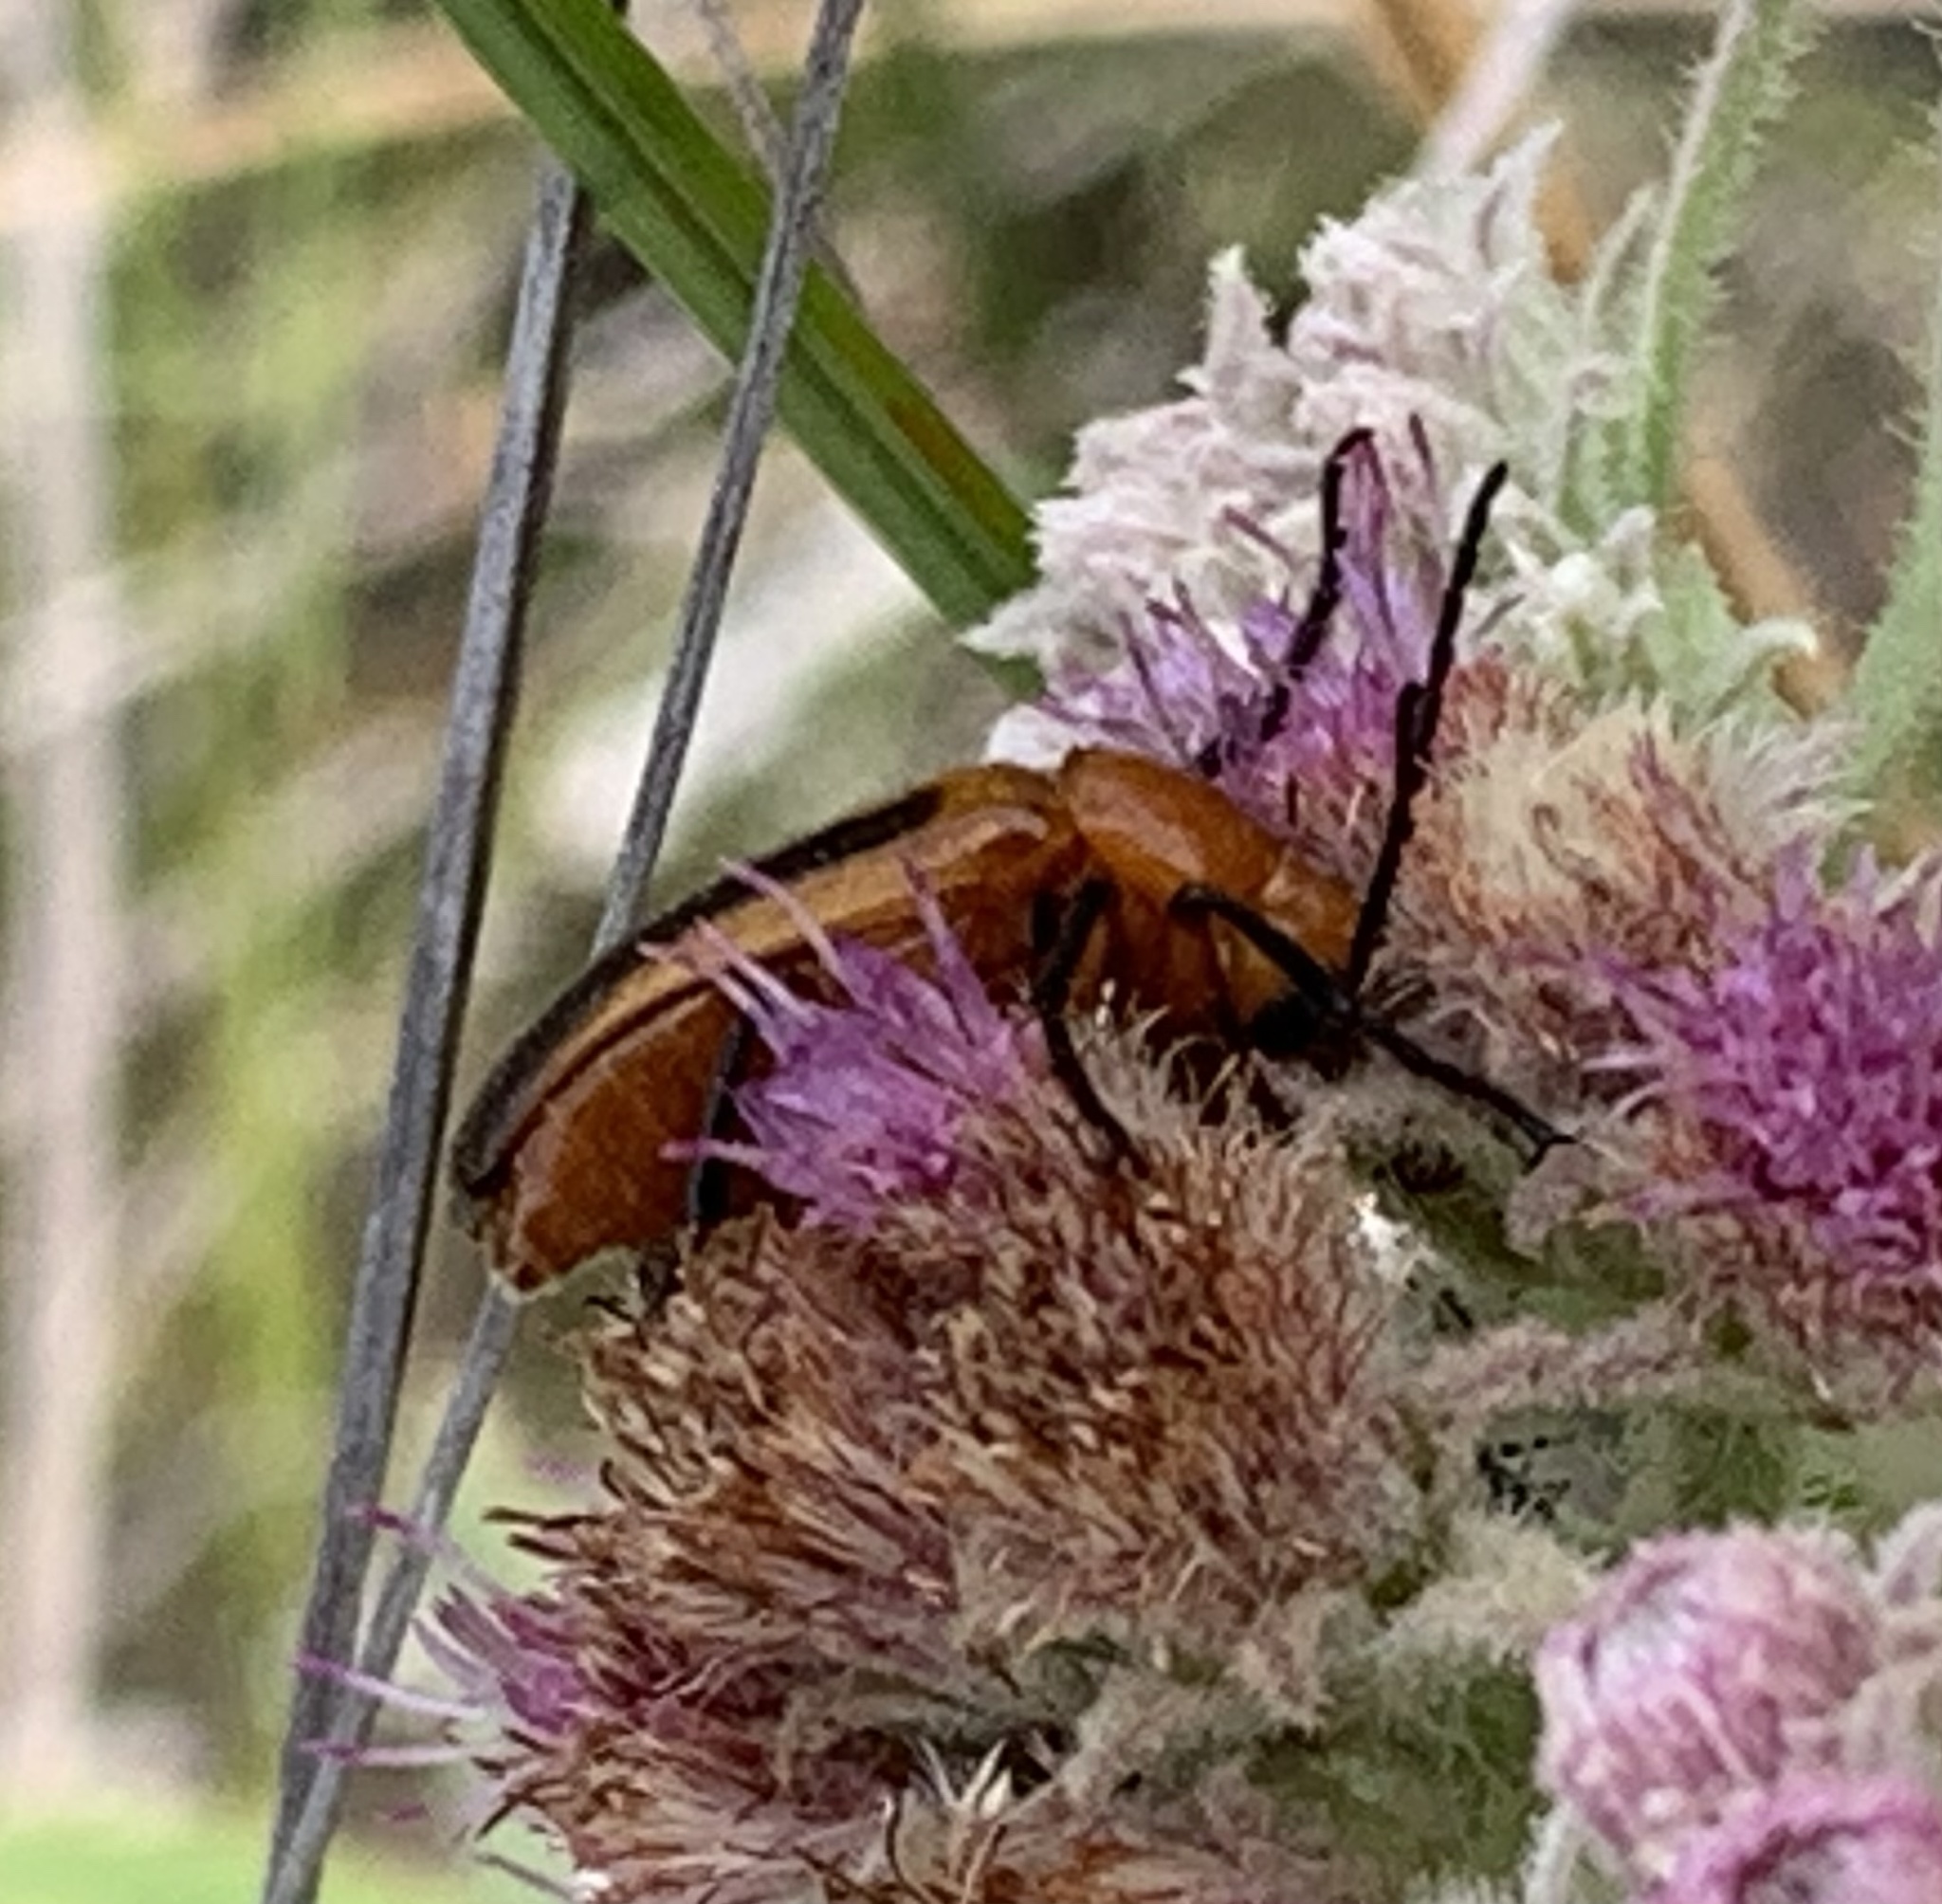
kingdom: Animalia
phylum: Arthropoda
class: Insecta
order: Coleoptera
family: Meloidae
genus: Nemognatha
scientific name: Nemognatha piazata
